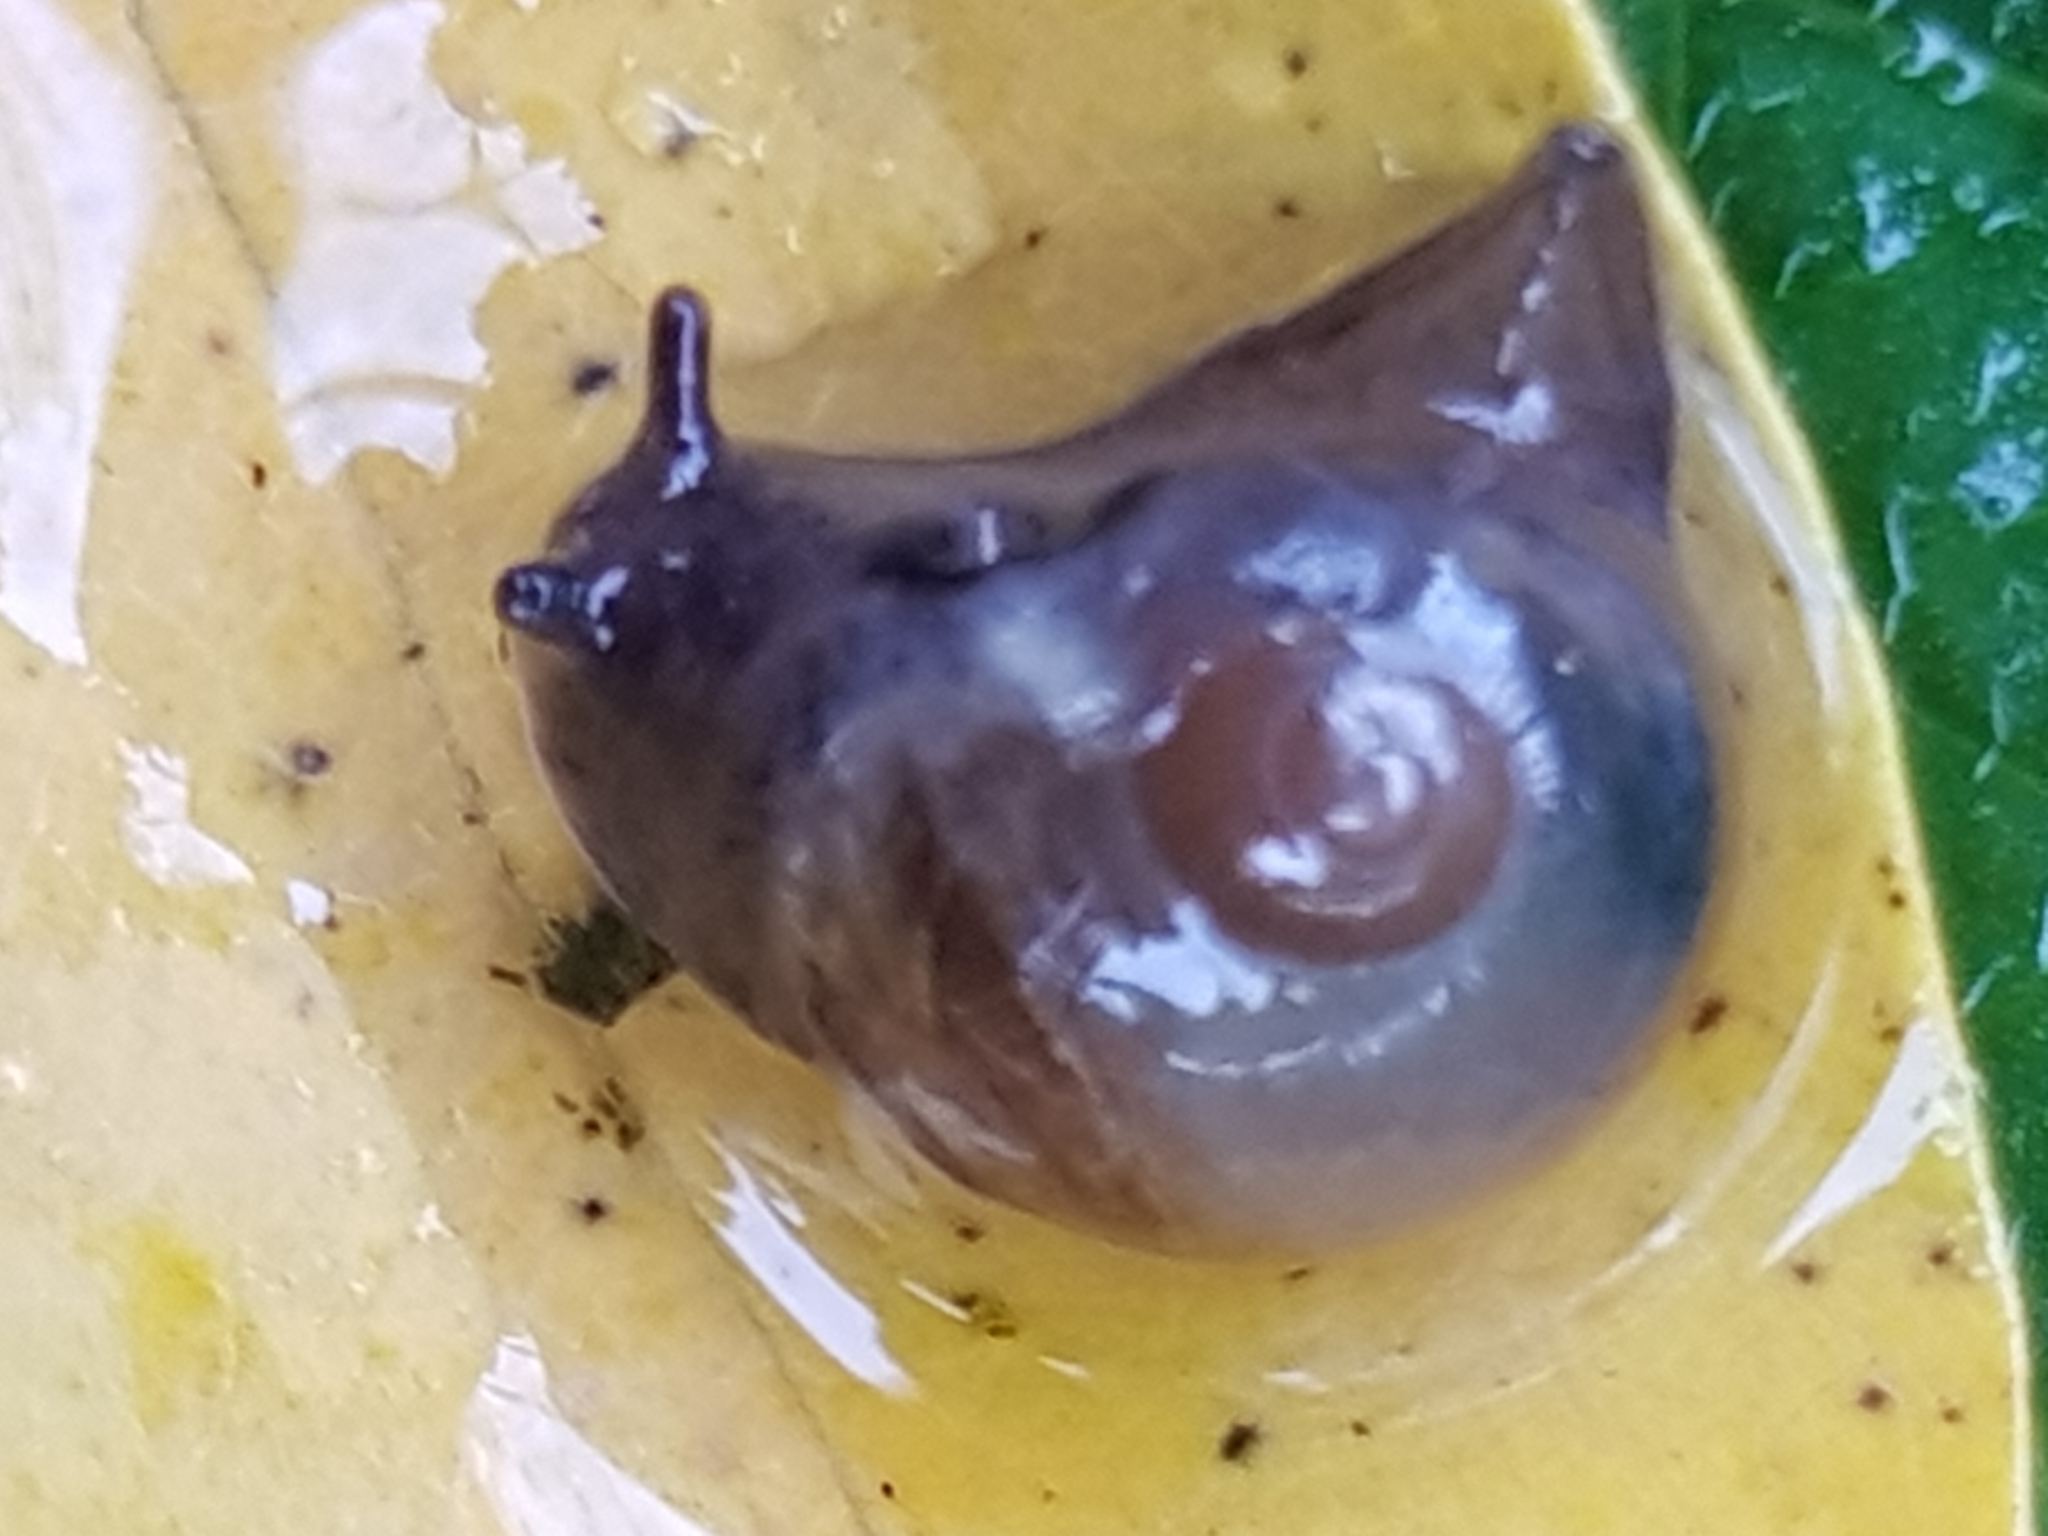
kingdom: Animalia
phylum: Mollusca
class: Gastropoda
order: Stylommatophora
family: Vitrinidae
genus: Vitrina
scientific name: Vitrina pellucida
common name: Pellucid glass snail
